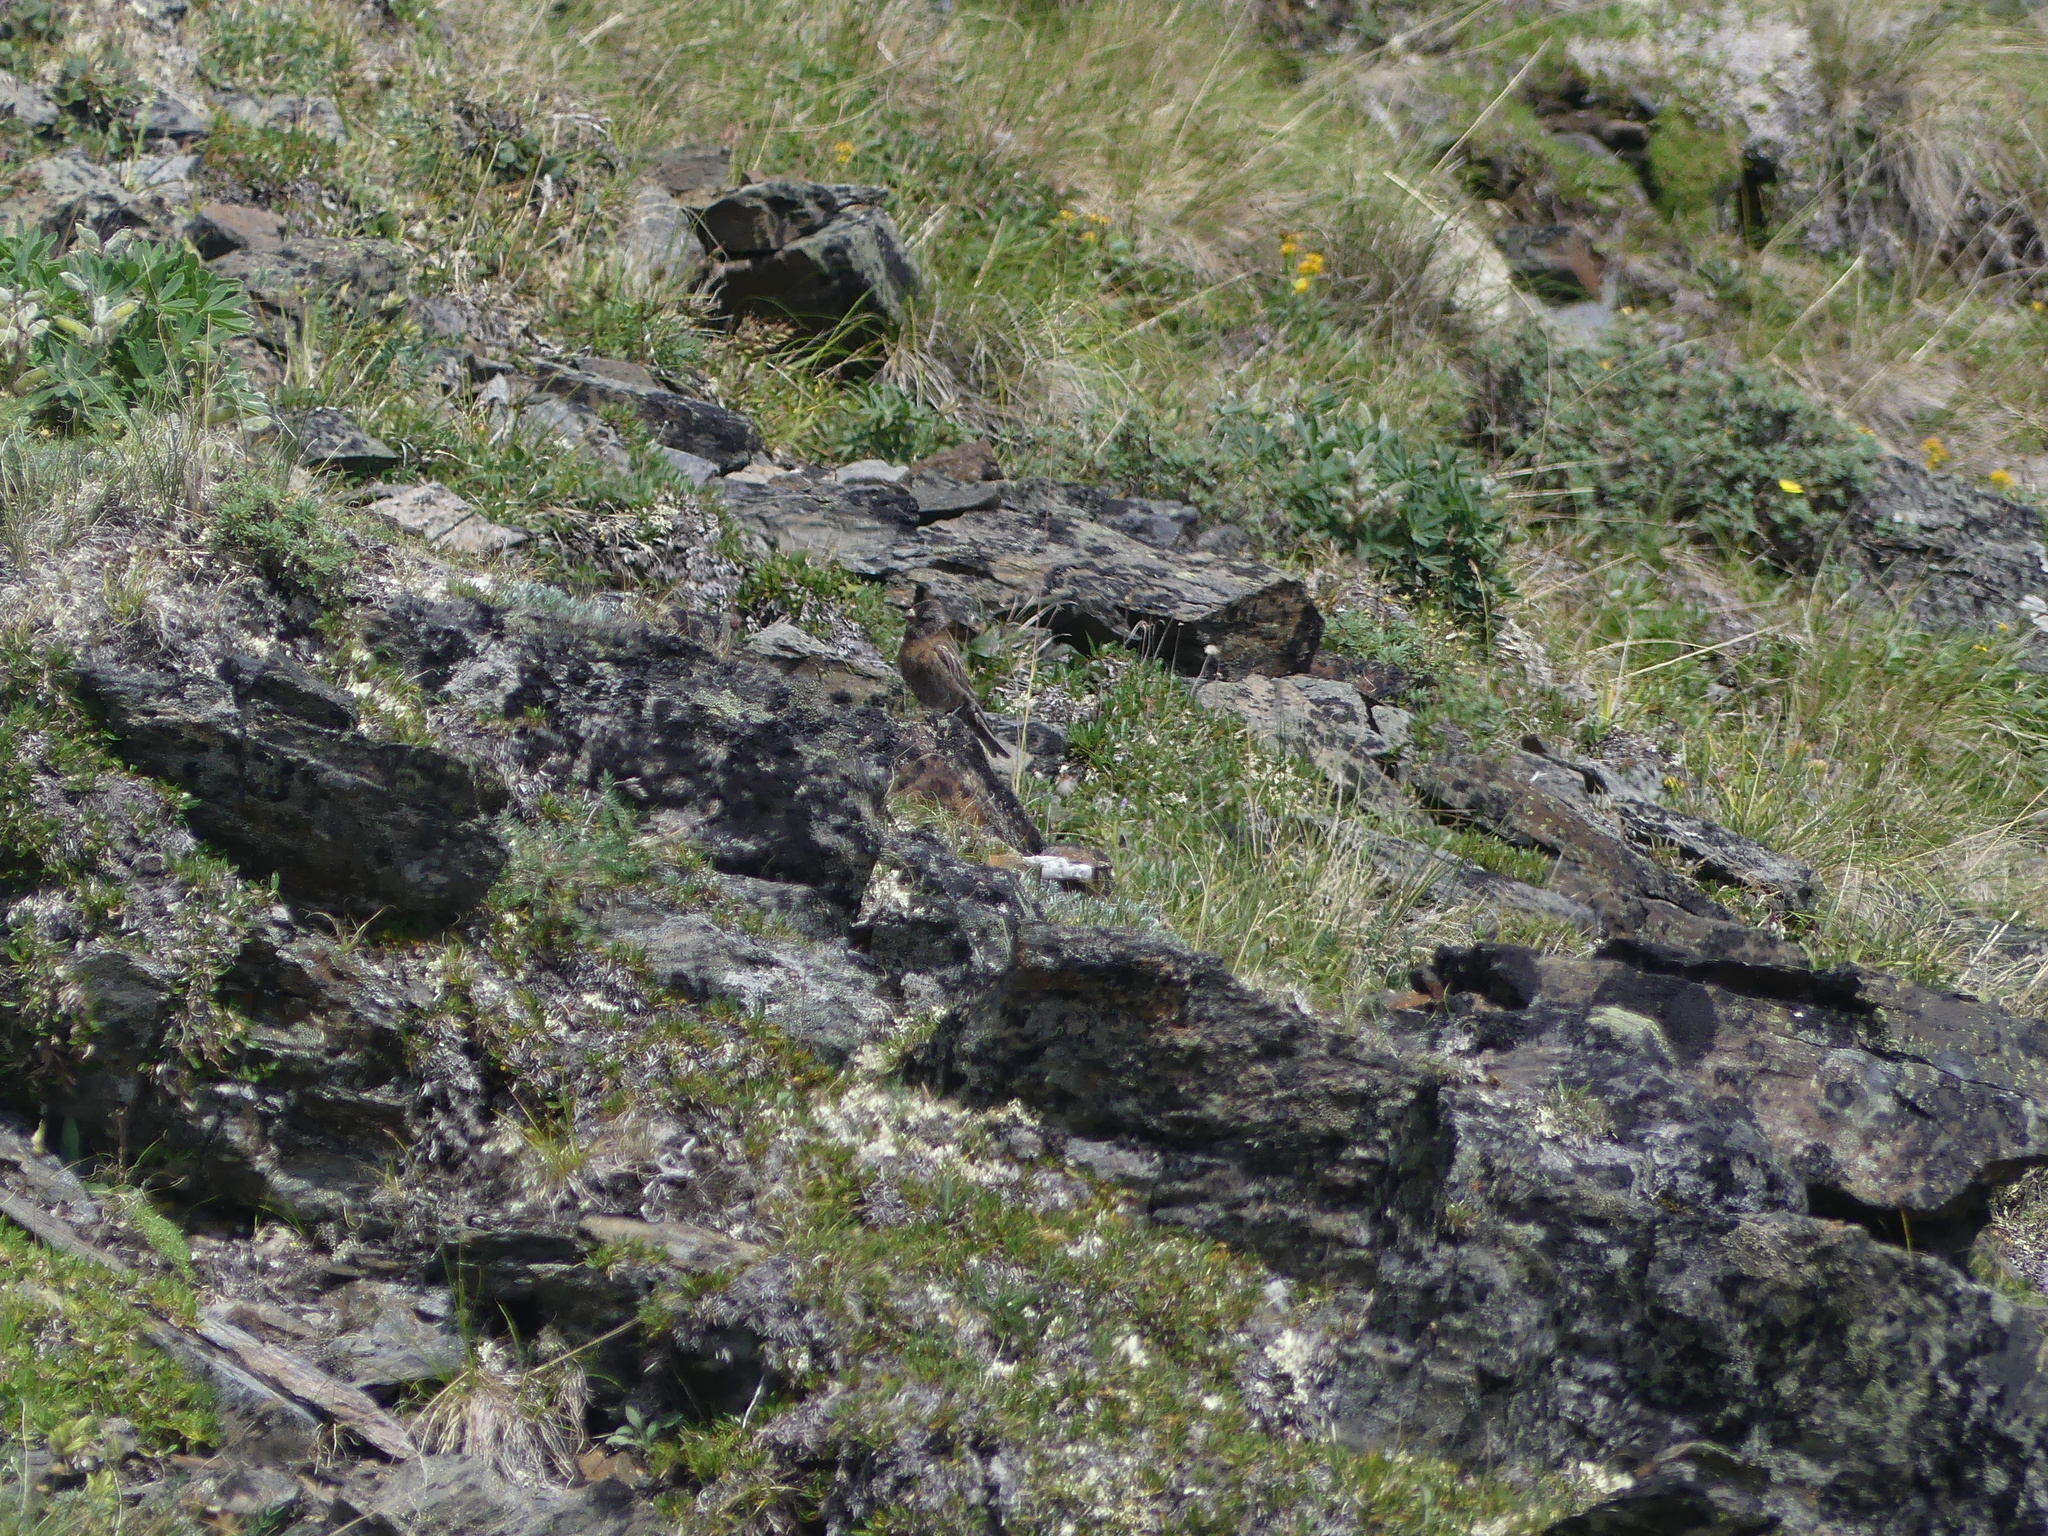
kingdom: Animalia
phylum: Chordata
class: Aves
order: Passeriformes
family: Fringillidae
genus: Leucosticte
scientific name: Leucosticte tephrocotis
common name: Gray-crowned rosy-finch
